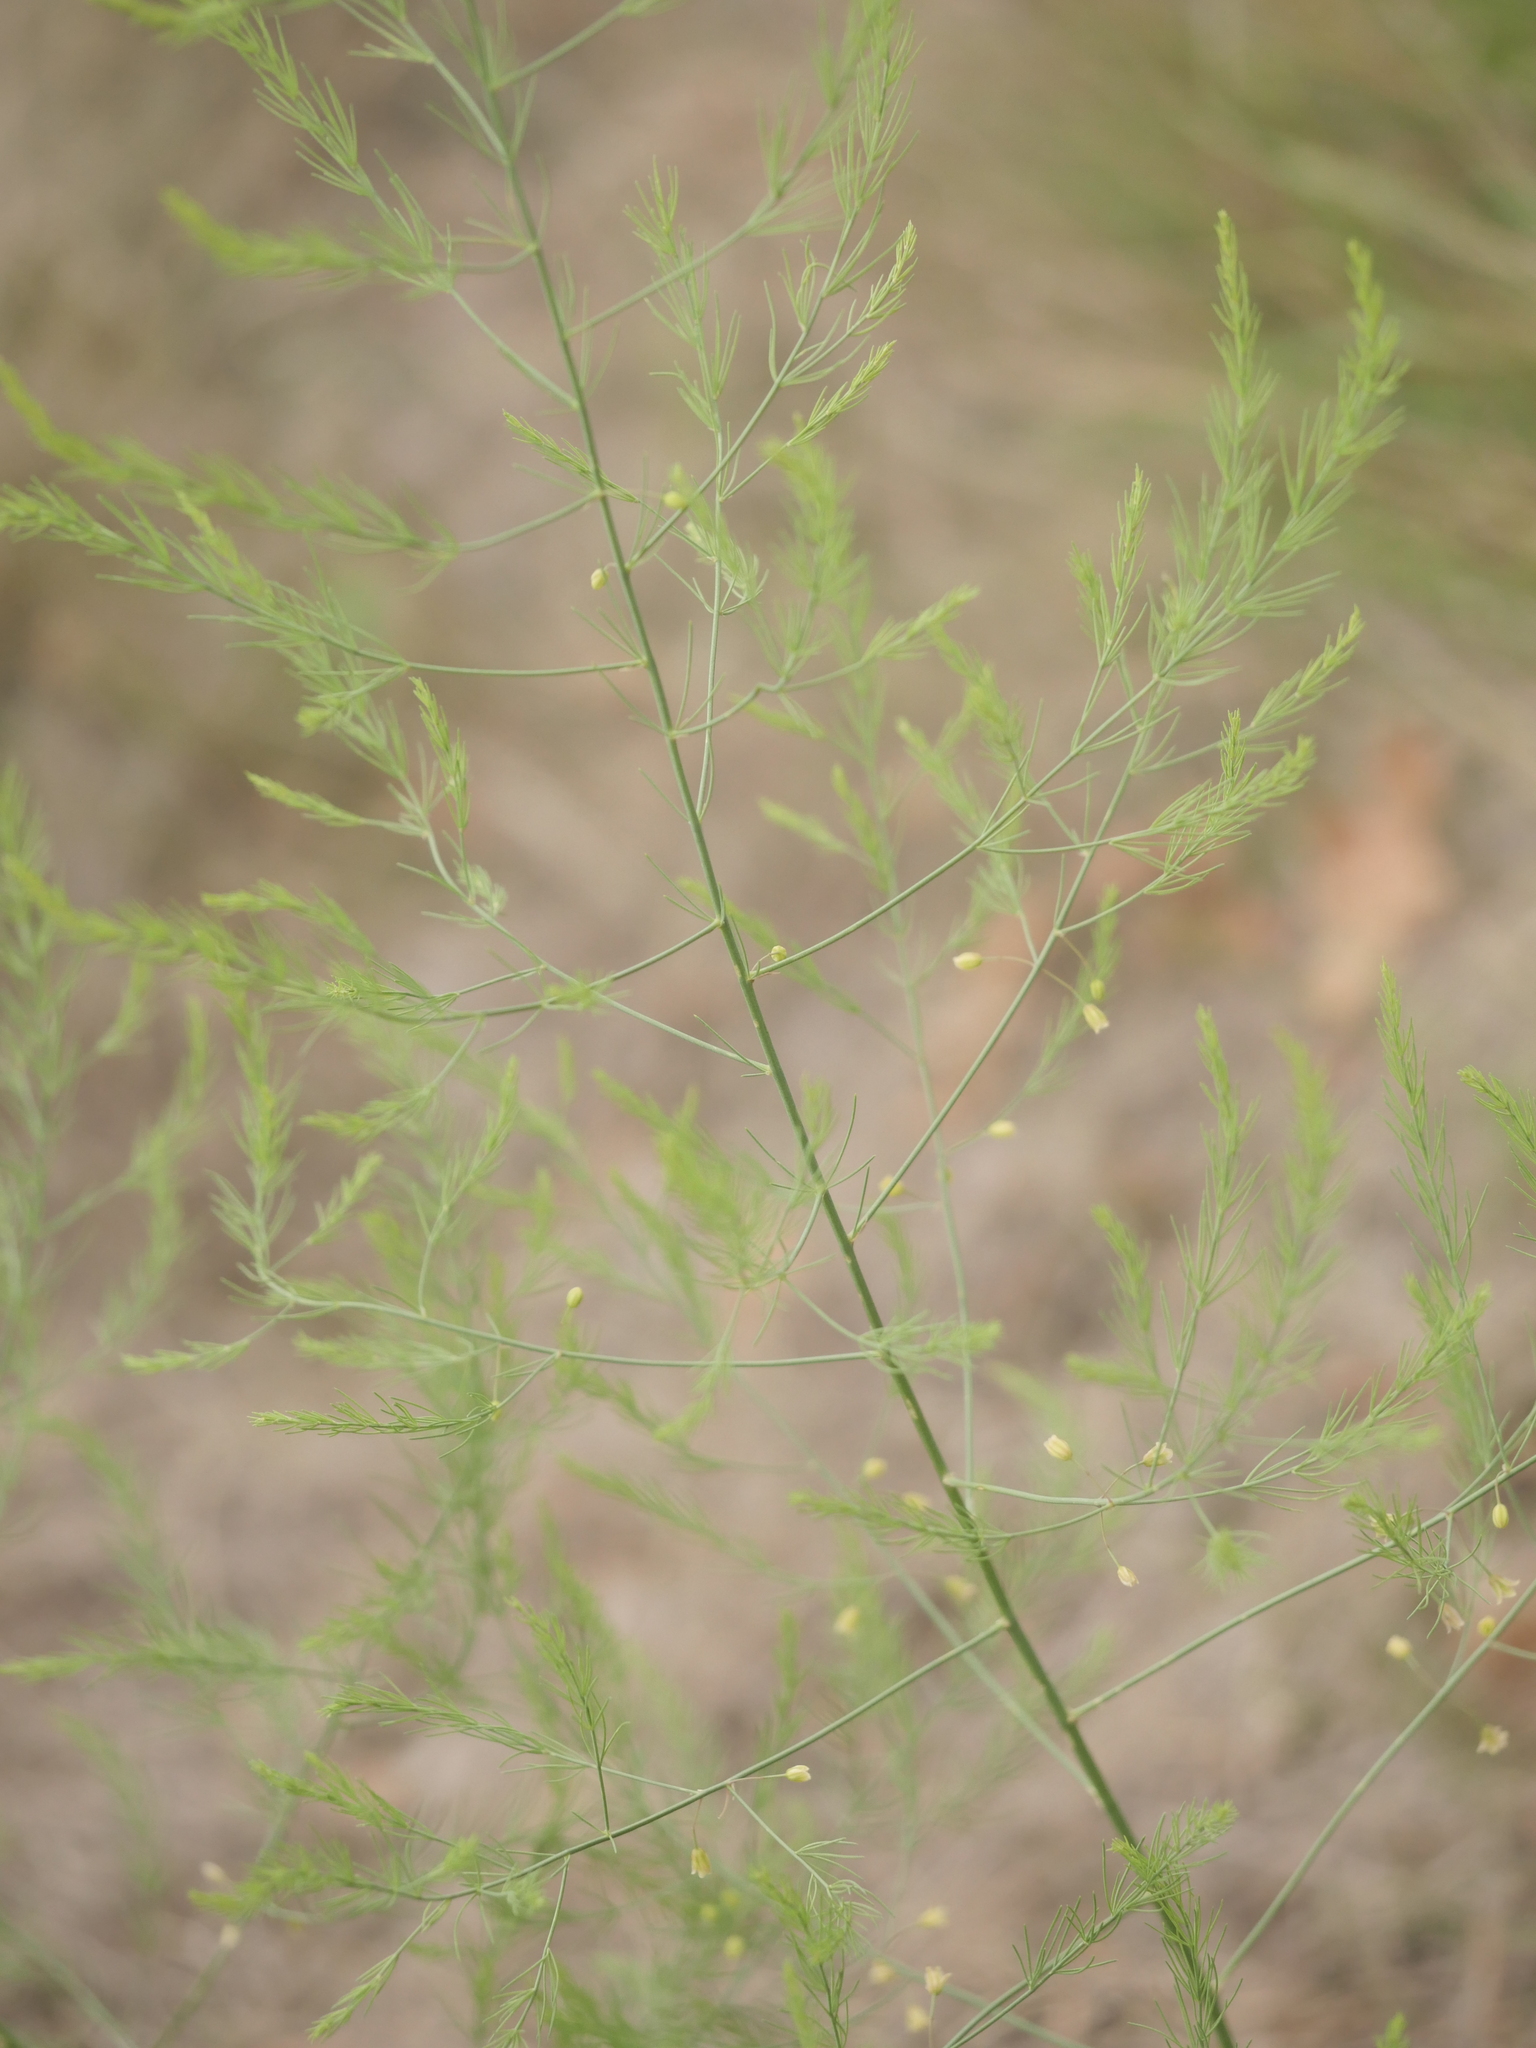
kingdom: Plantae
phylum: Tracheophyta
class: Liliopsida
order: Asparagales
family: Asparagaceae
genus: Asparagus
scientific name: Asparagus officinalis
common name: Garden asparagus
